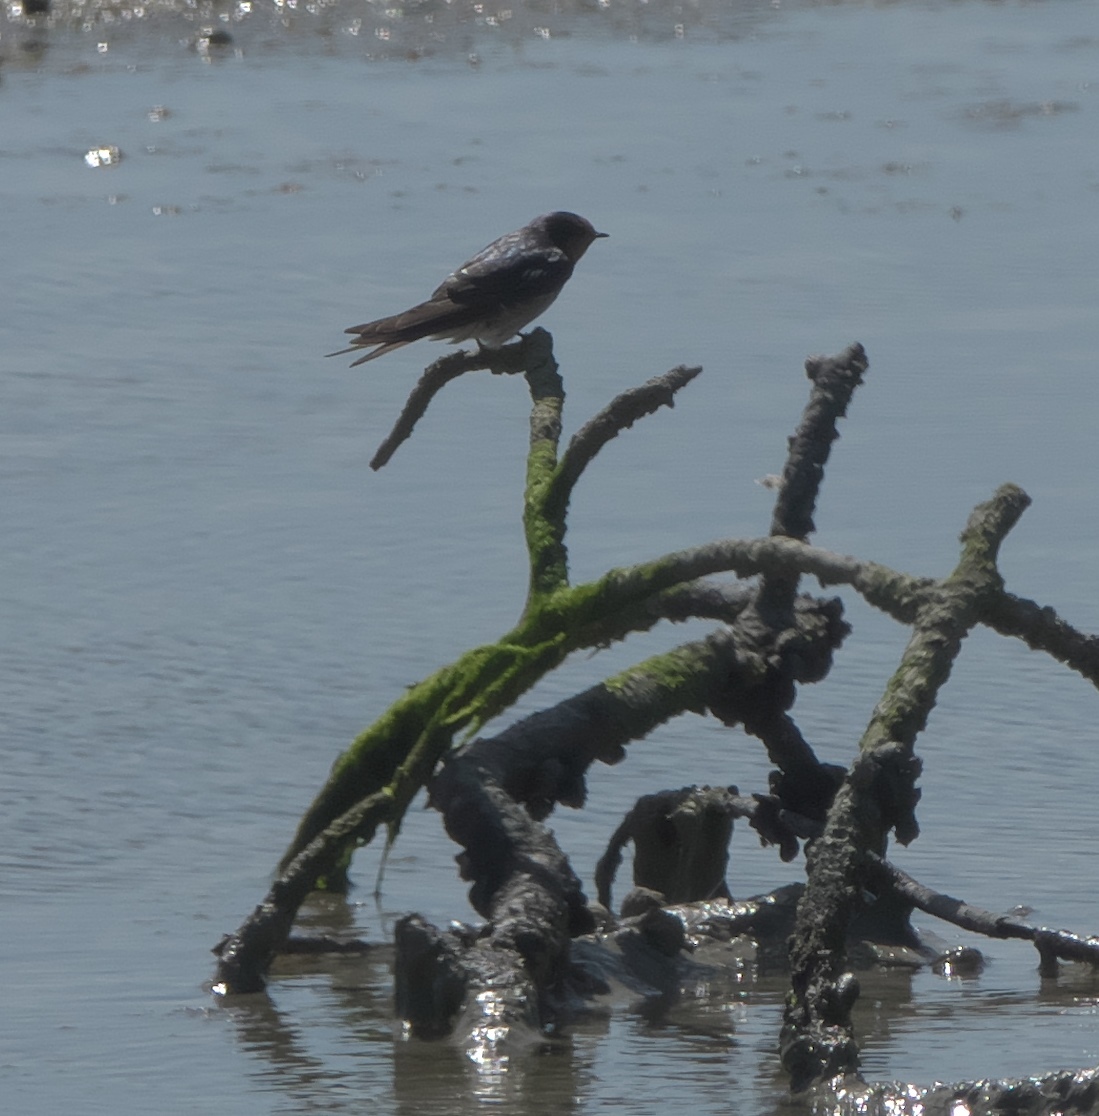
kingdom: Animalia
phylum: Chordata
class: Aves
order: Passeriformes
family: Hirundinidae
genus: Hirundo
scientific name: Hirundo neoxena
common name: Welcome swallow
